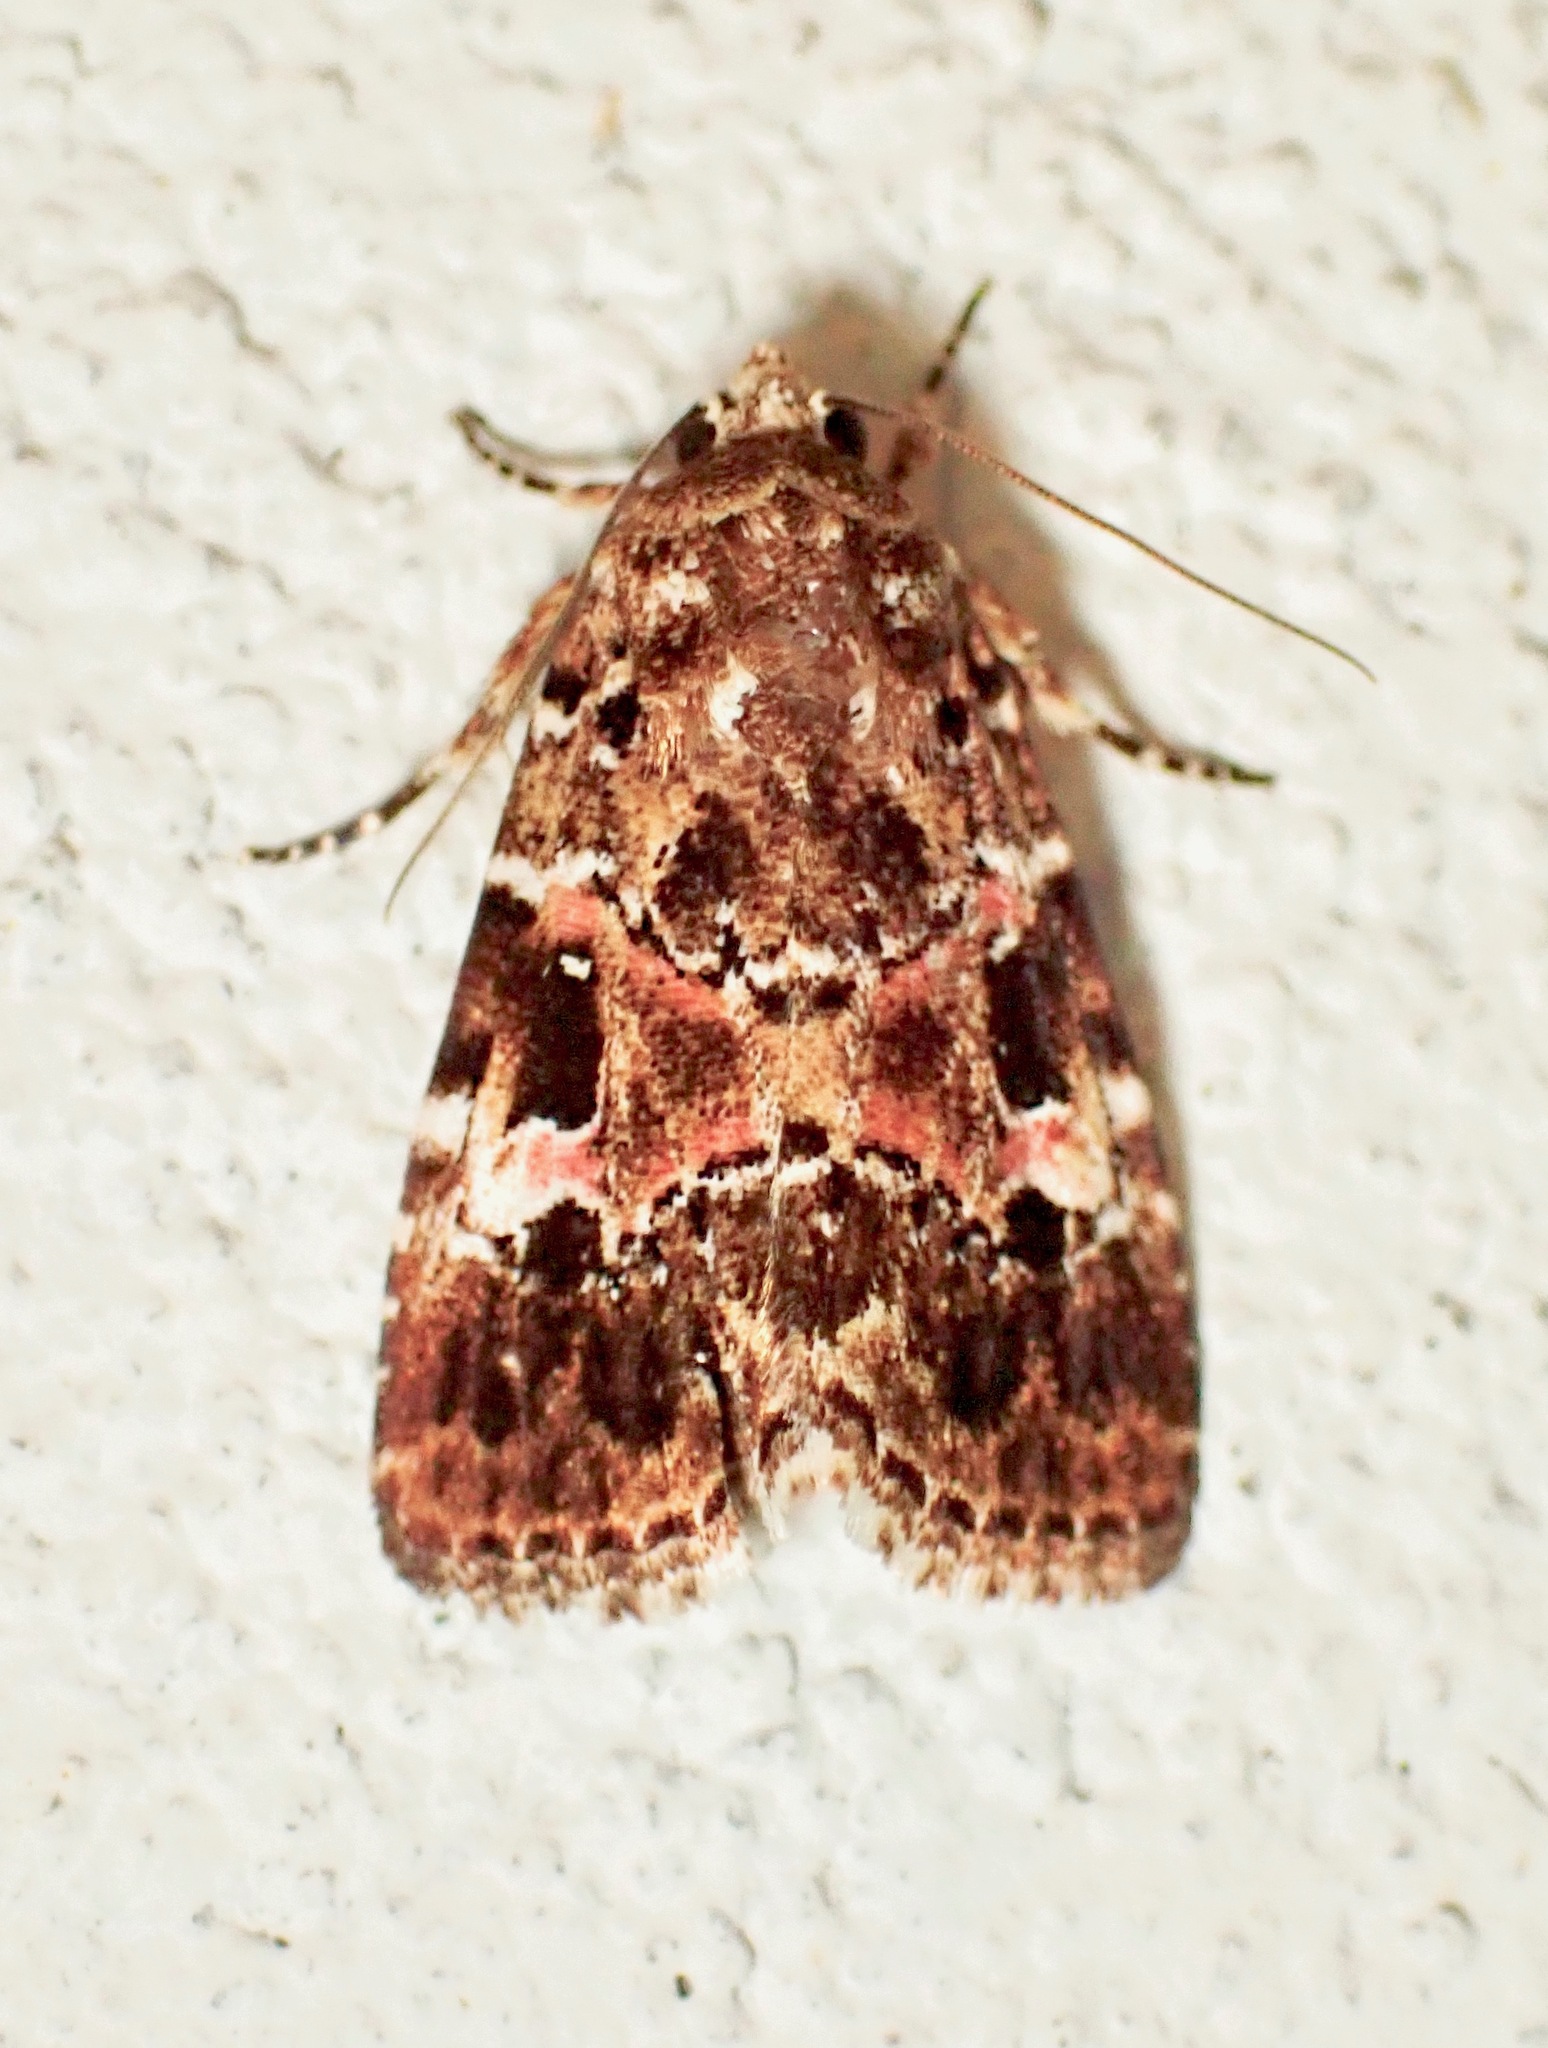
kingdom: Animalia
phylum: Arthropoda
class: Insecta
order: Lepidoptera
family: Noctuidae
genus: Elaphria
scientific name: Elaphria pulchra
